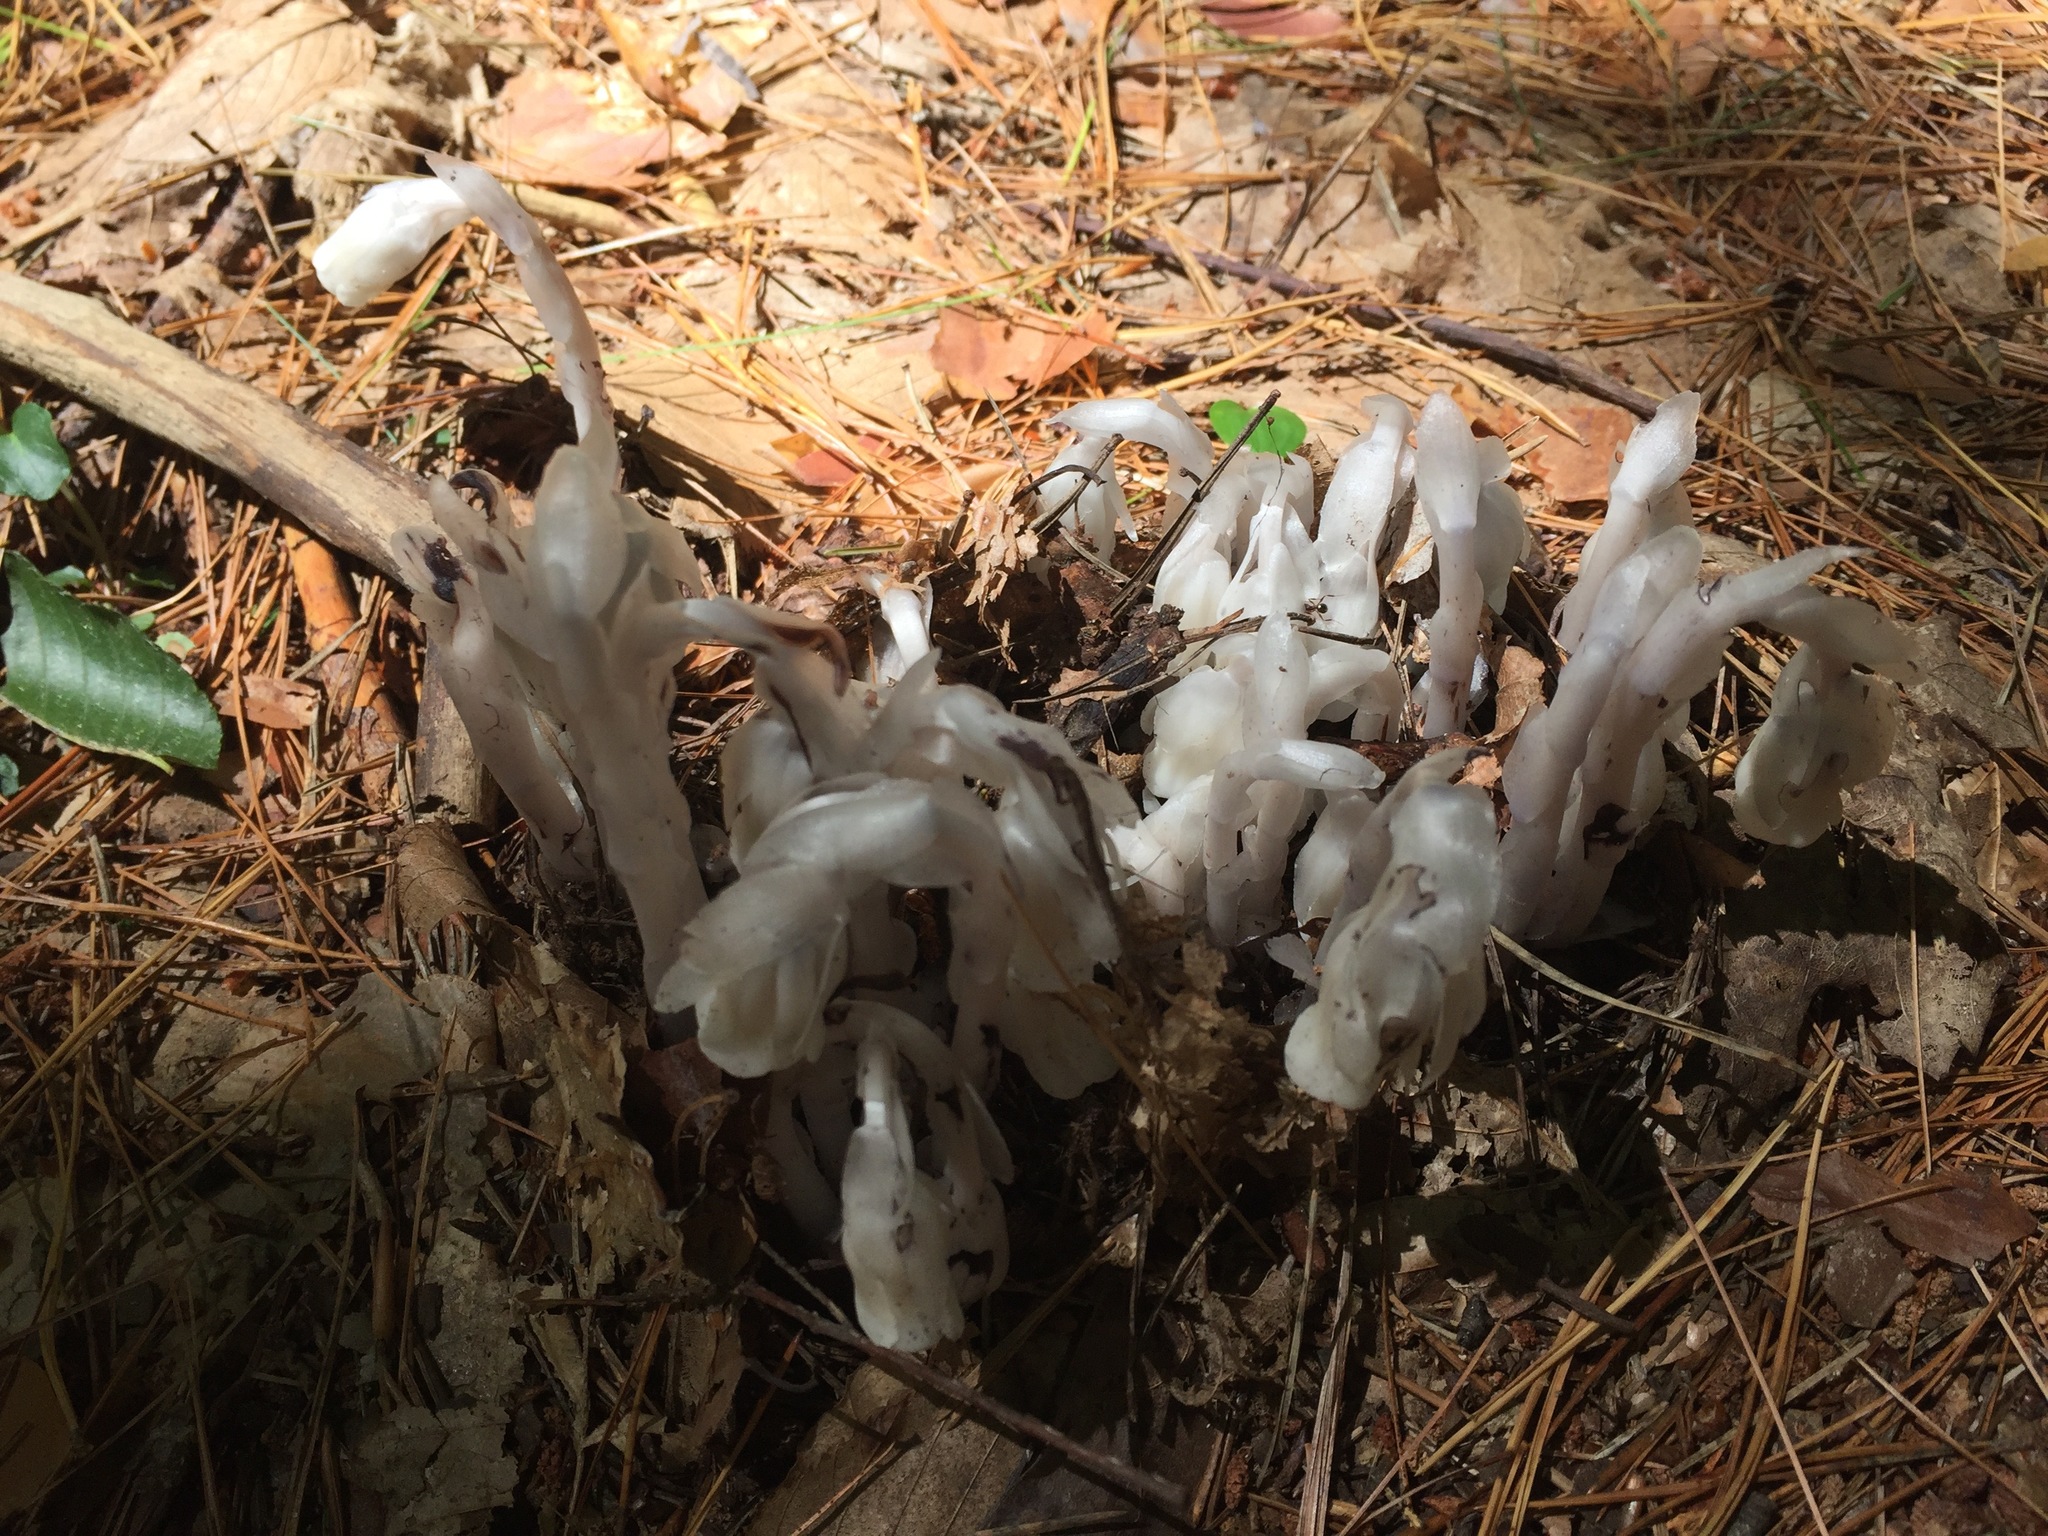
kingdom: Plantae
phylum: Tracheophyta
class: Magnoliopsida
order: Ericales
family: Ericaceae
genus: Monotropa
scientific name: Monotropa uniflora
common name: Convulsion root
